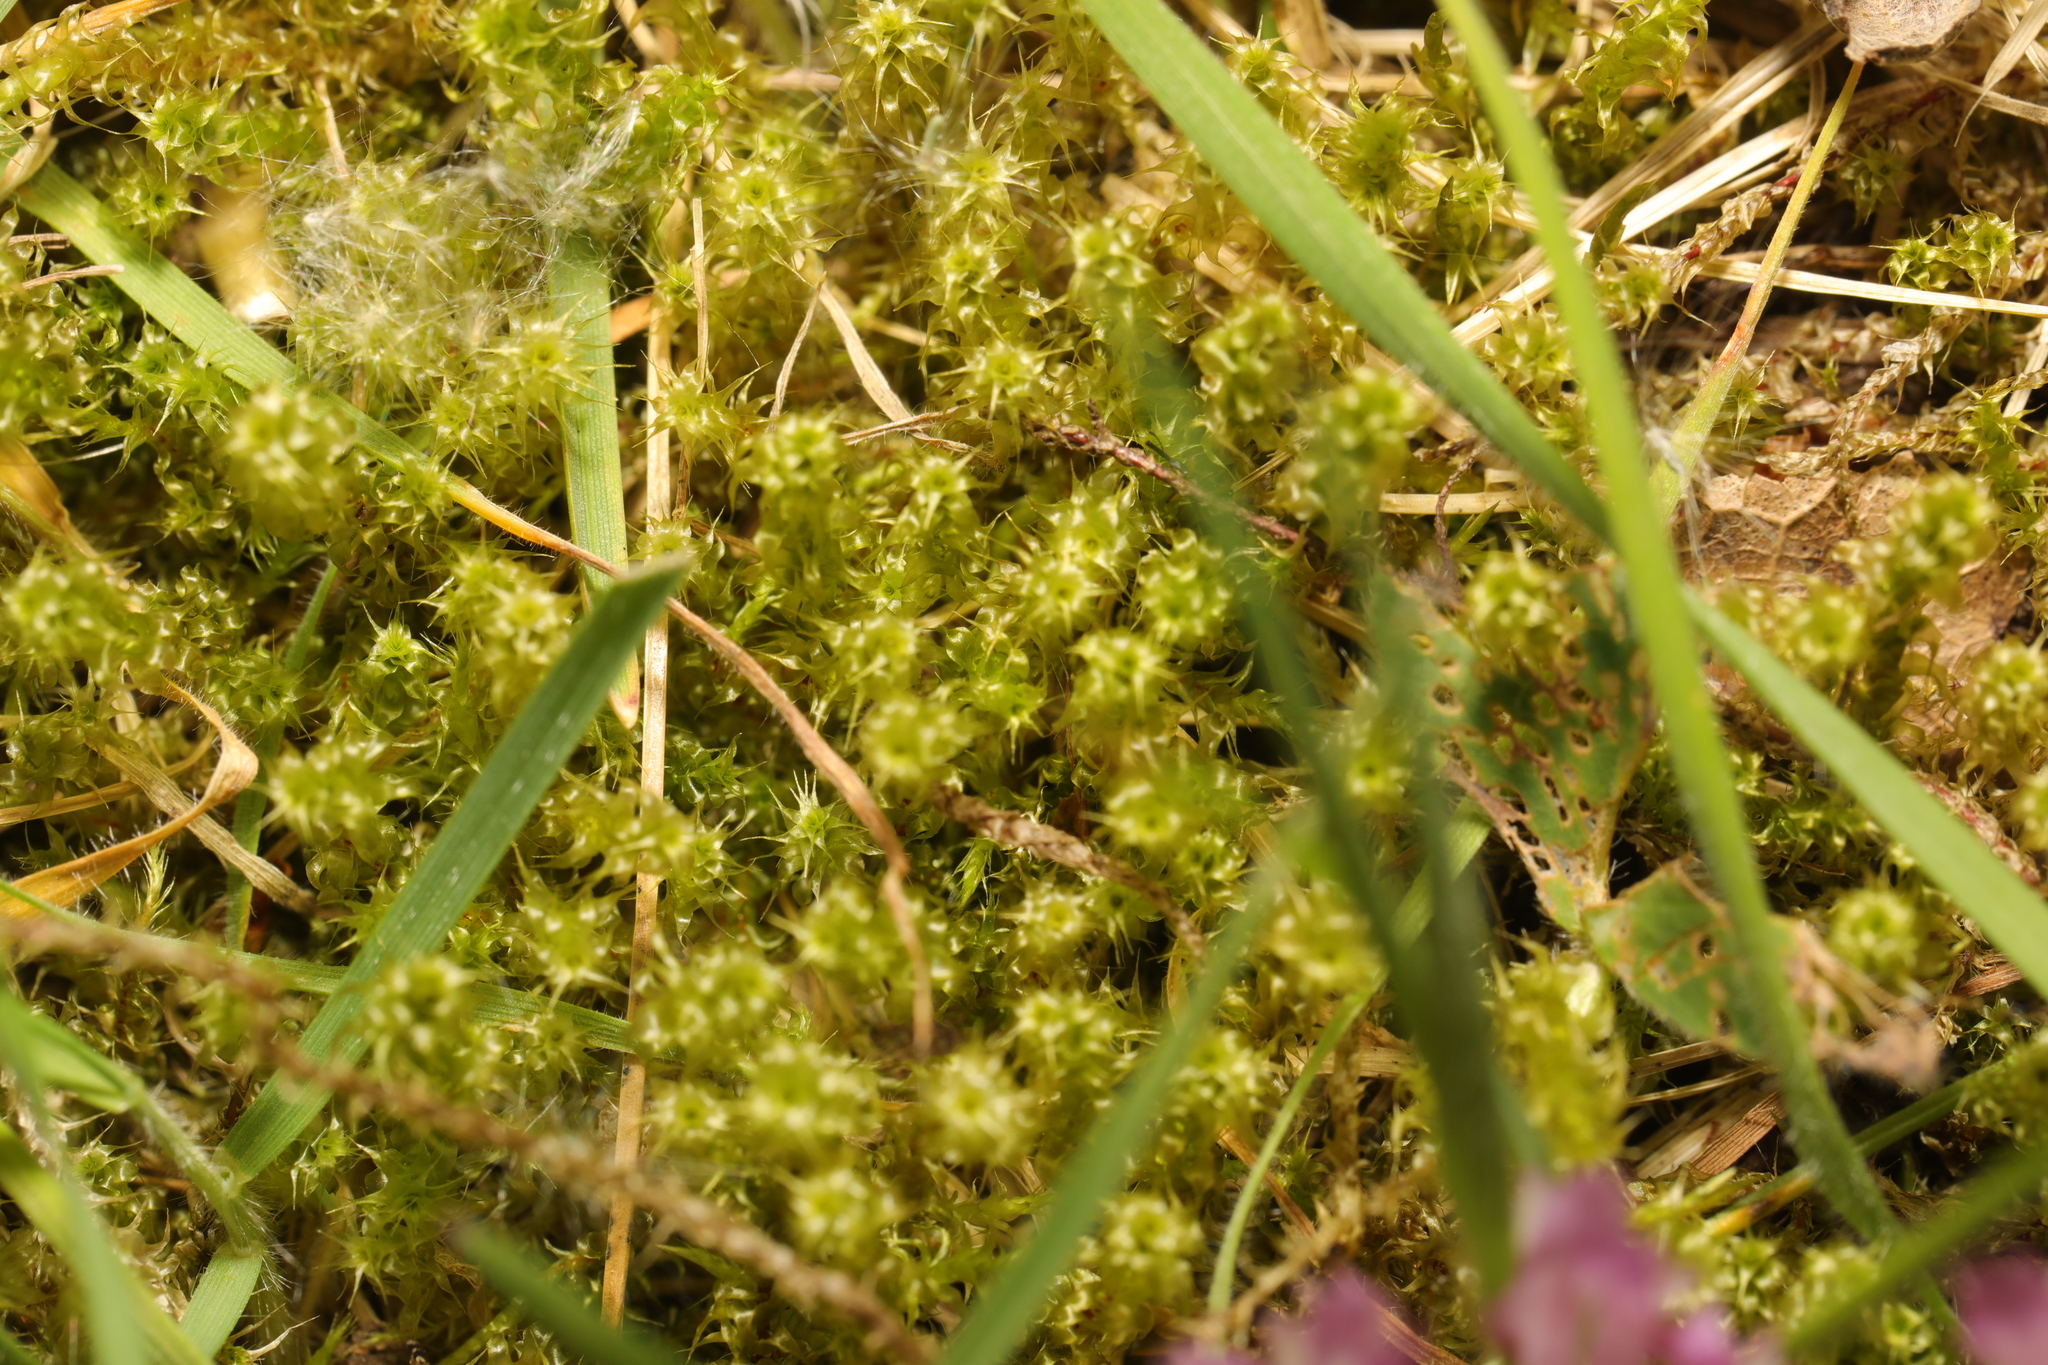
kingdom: Plantae
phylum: Bryophyta
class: Bryopsida
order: Hypnales
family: Hylocomiaceae
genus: Rhytidiadelphus
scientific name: Rhytidiadelphus squarrosus
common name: Springy turf-moss
